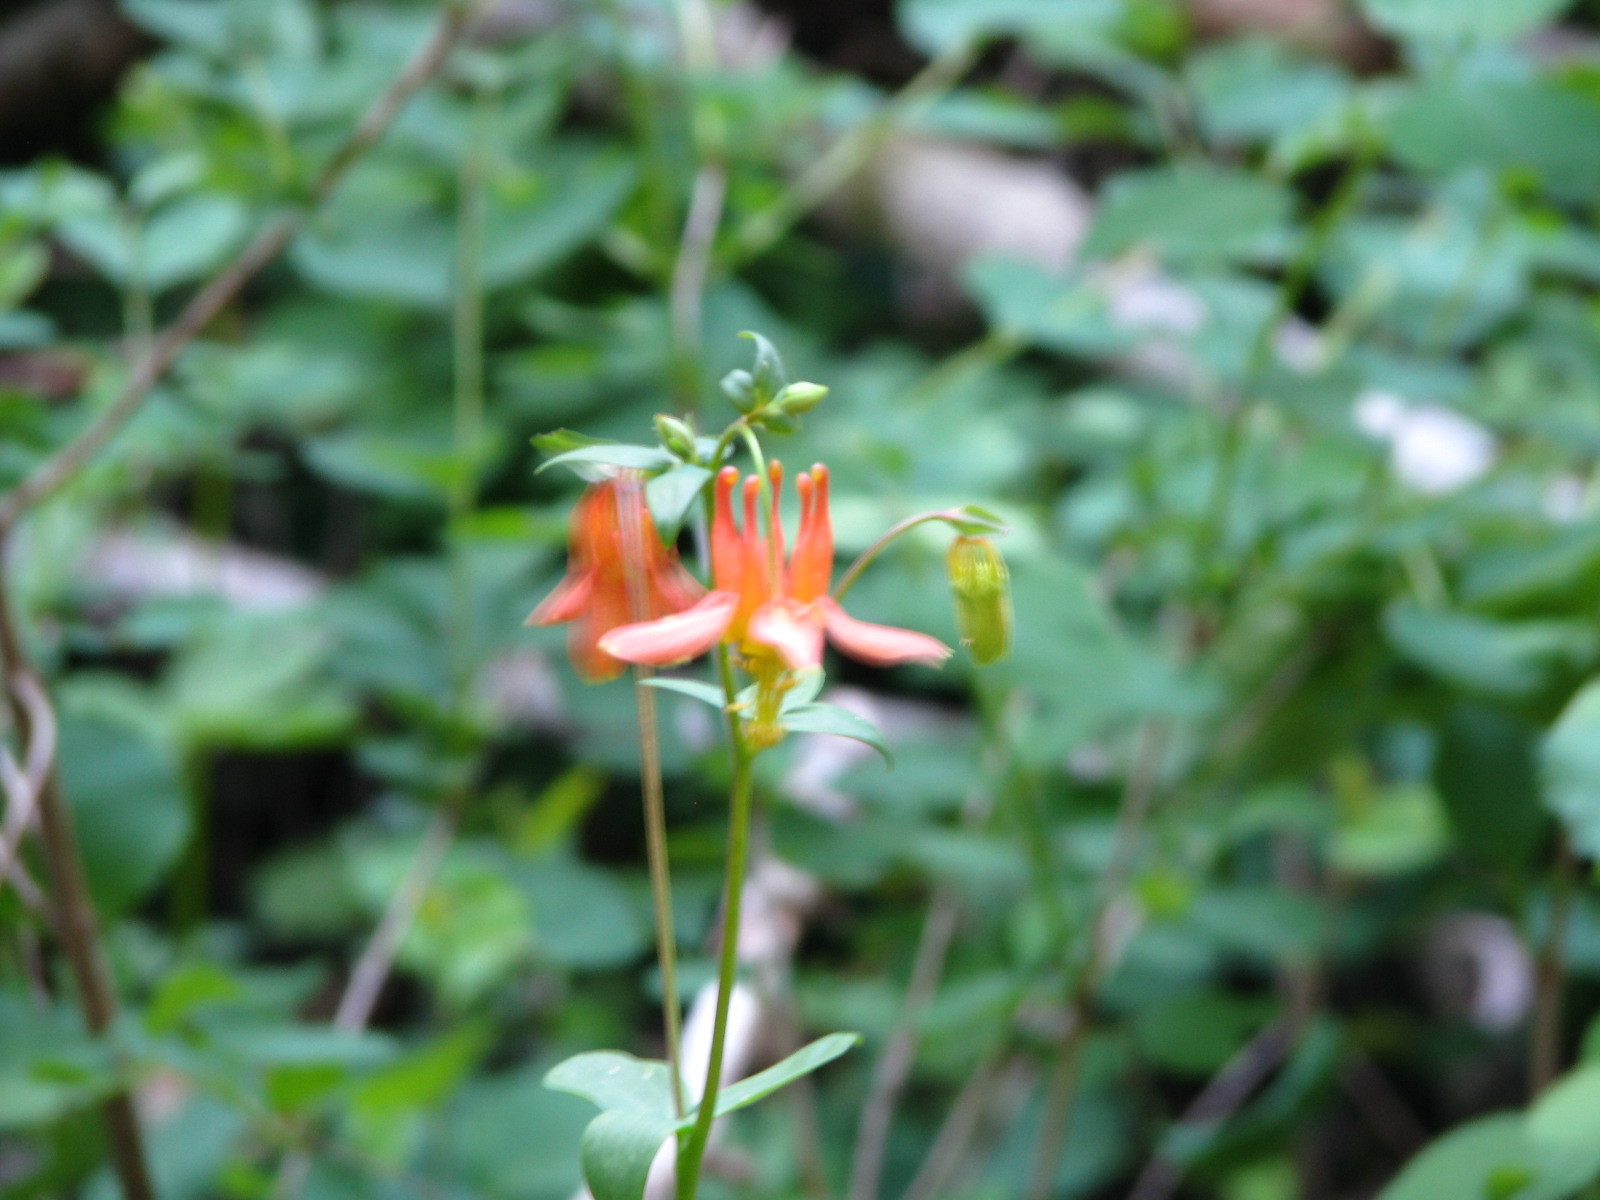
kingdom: Plantae
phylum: Tracheophyta
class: Magnoliopsida
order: Ranunculales
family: Ranunculaceae
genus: Aquilegia
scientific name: Aquilegia formosa
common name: Sitka columbine
